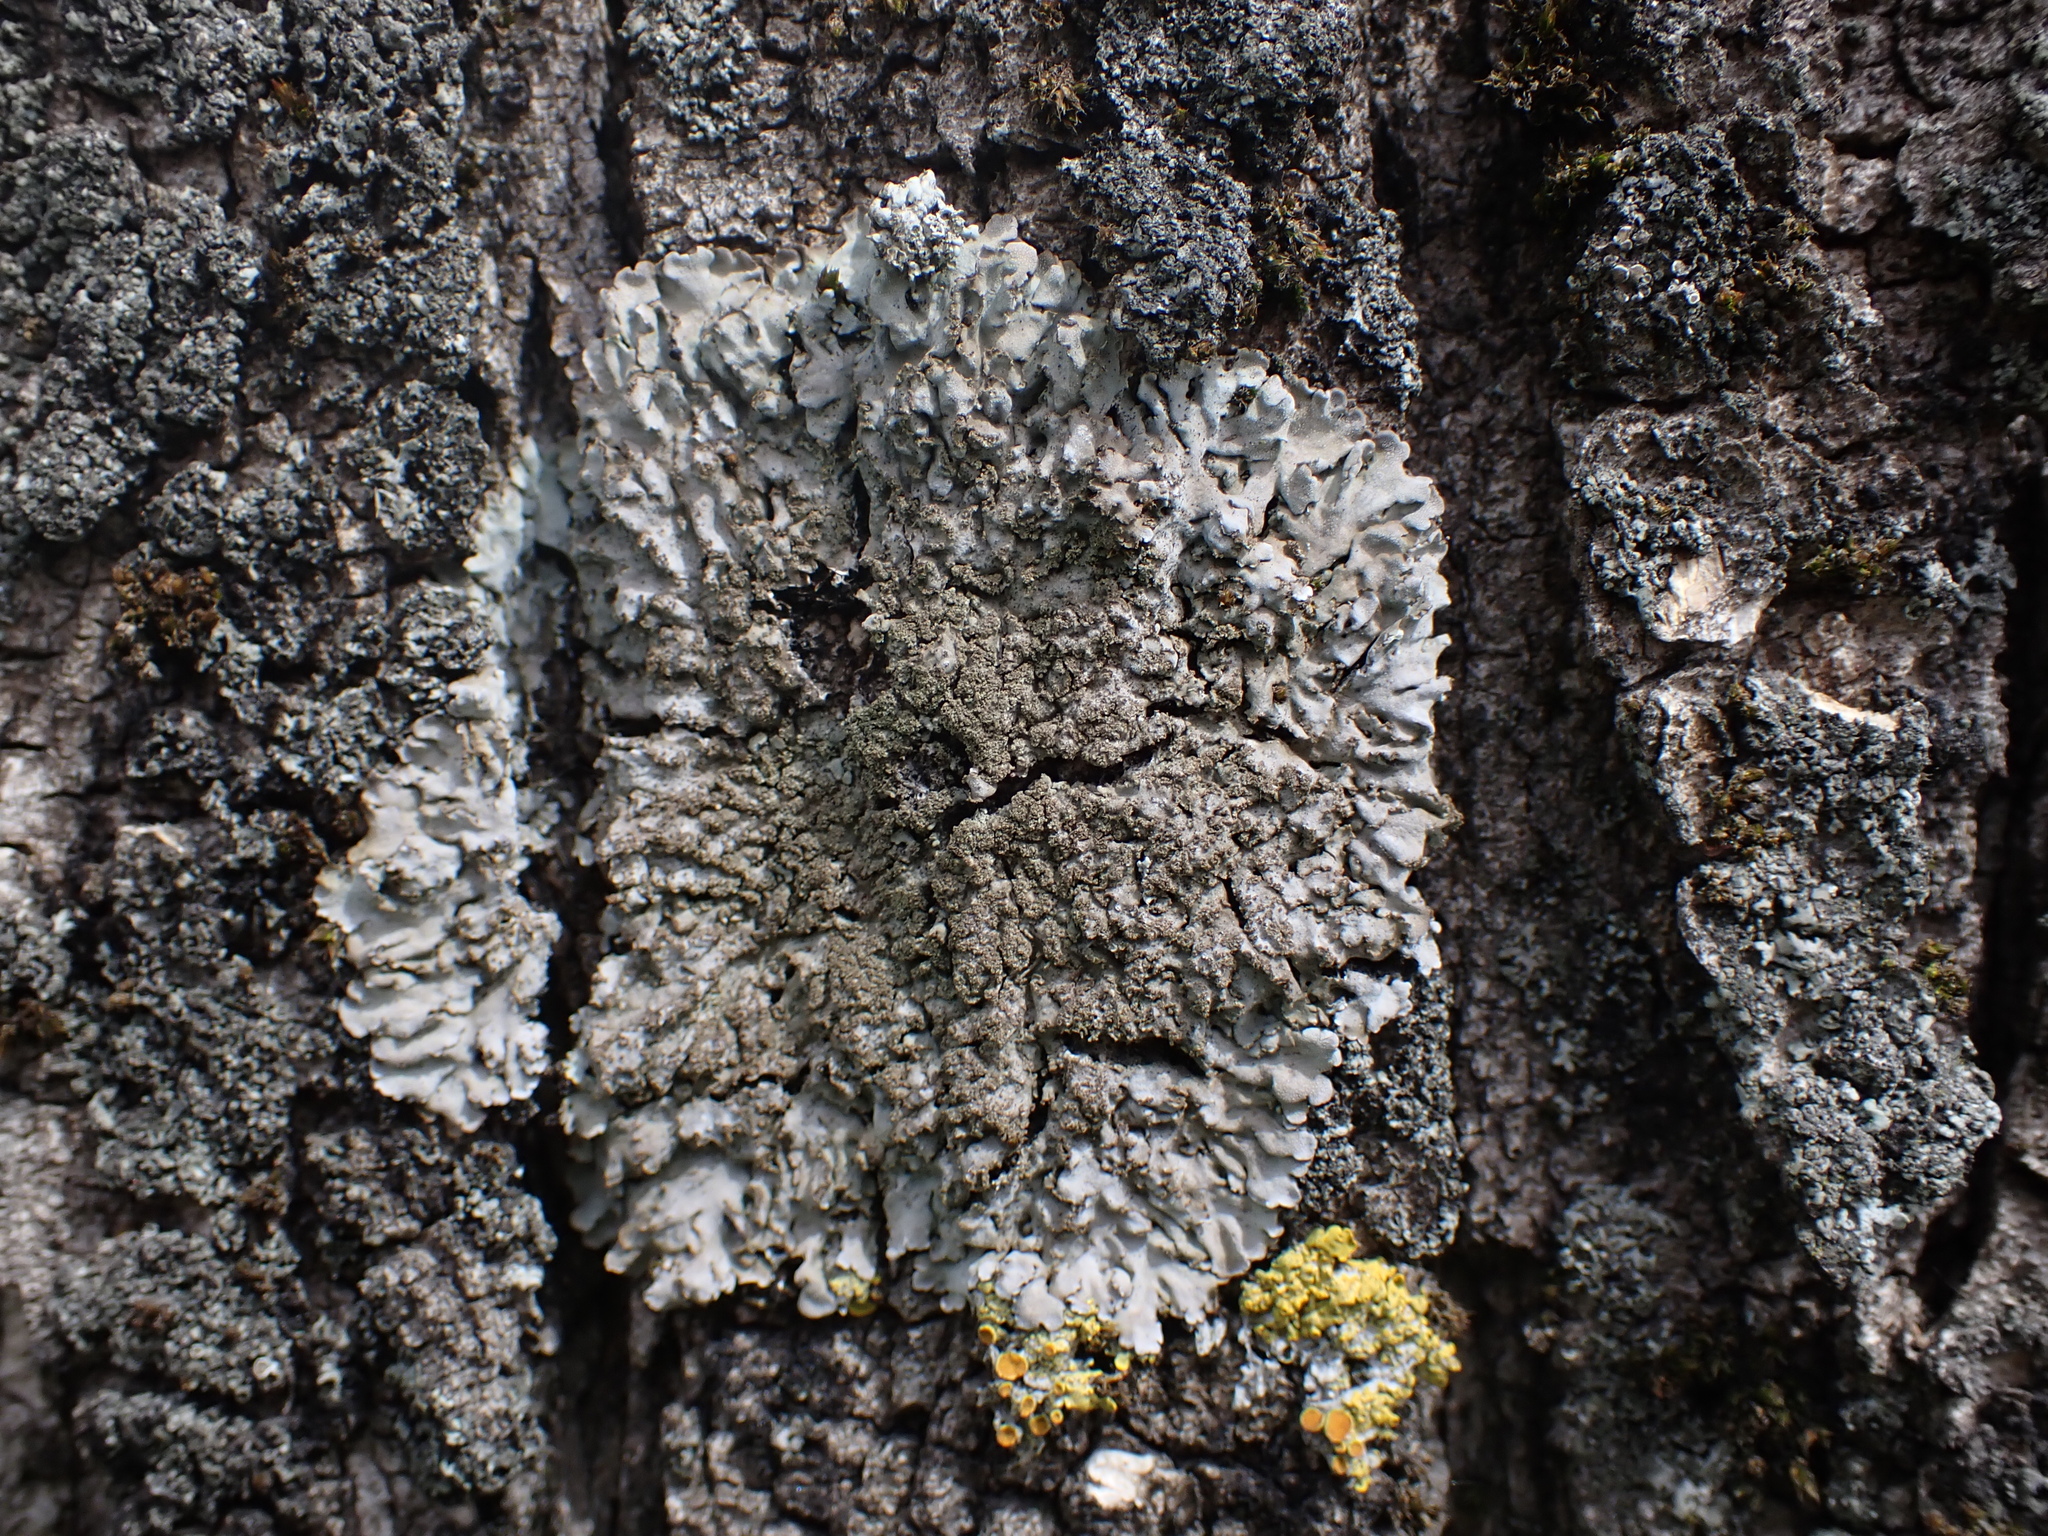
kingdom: Fungi
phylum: Ascomycota
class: Lecanoromycetes
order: Caliciales
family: Physciaceae
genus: Poeltonia
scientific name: Poeltonia grisea
